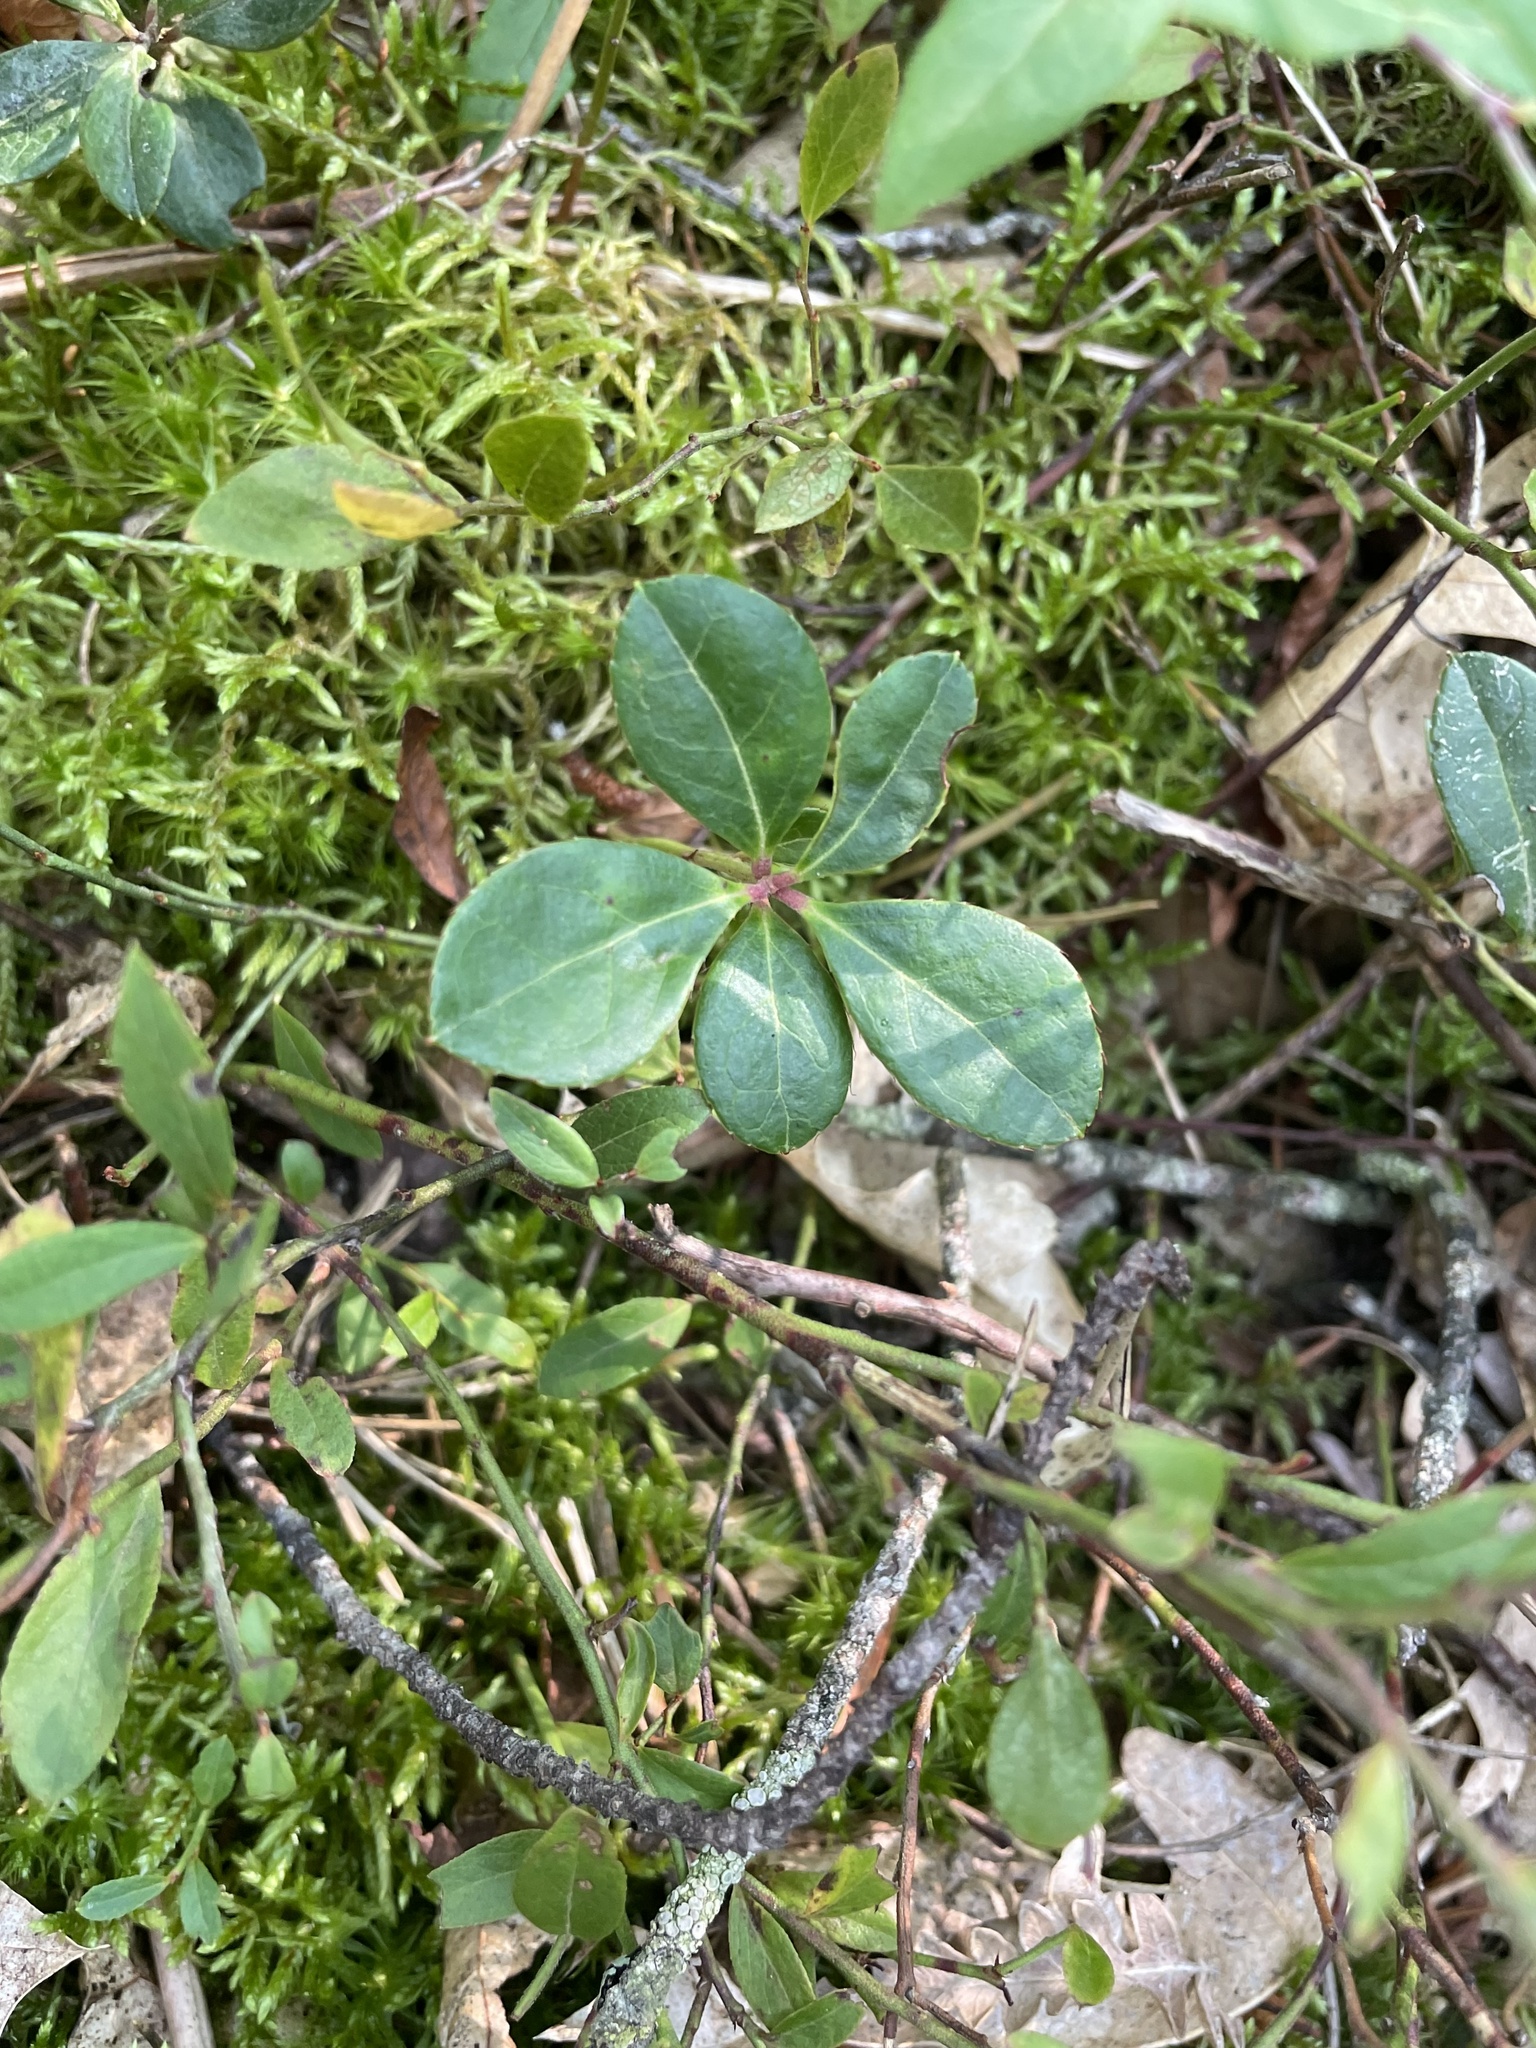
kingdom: Plantae
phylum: Tracheophyta
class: Magnoliopsida
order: Ericales
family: Ericaceae
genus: Gaultheria
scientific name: Gaultheria procumbens
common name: Checkerberry
